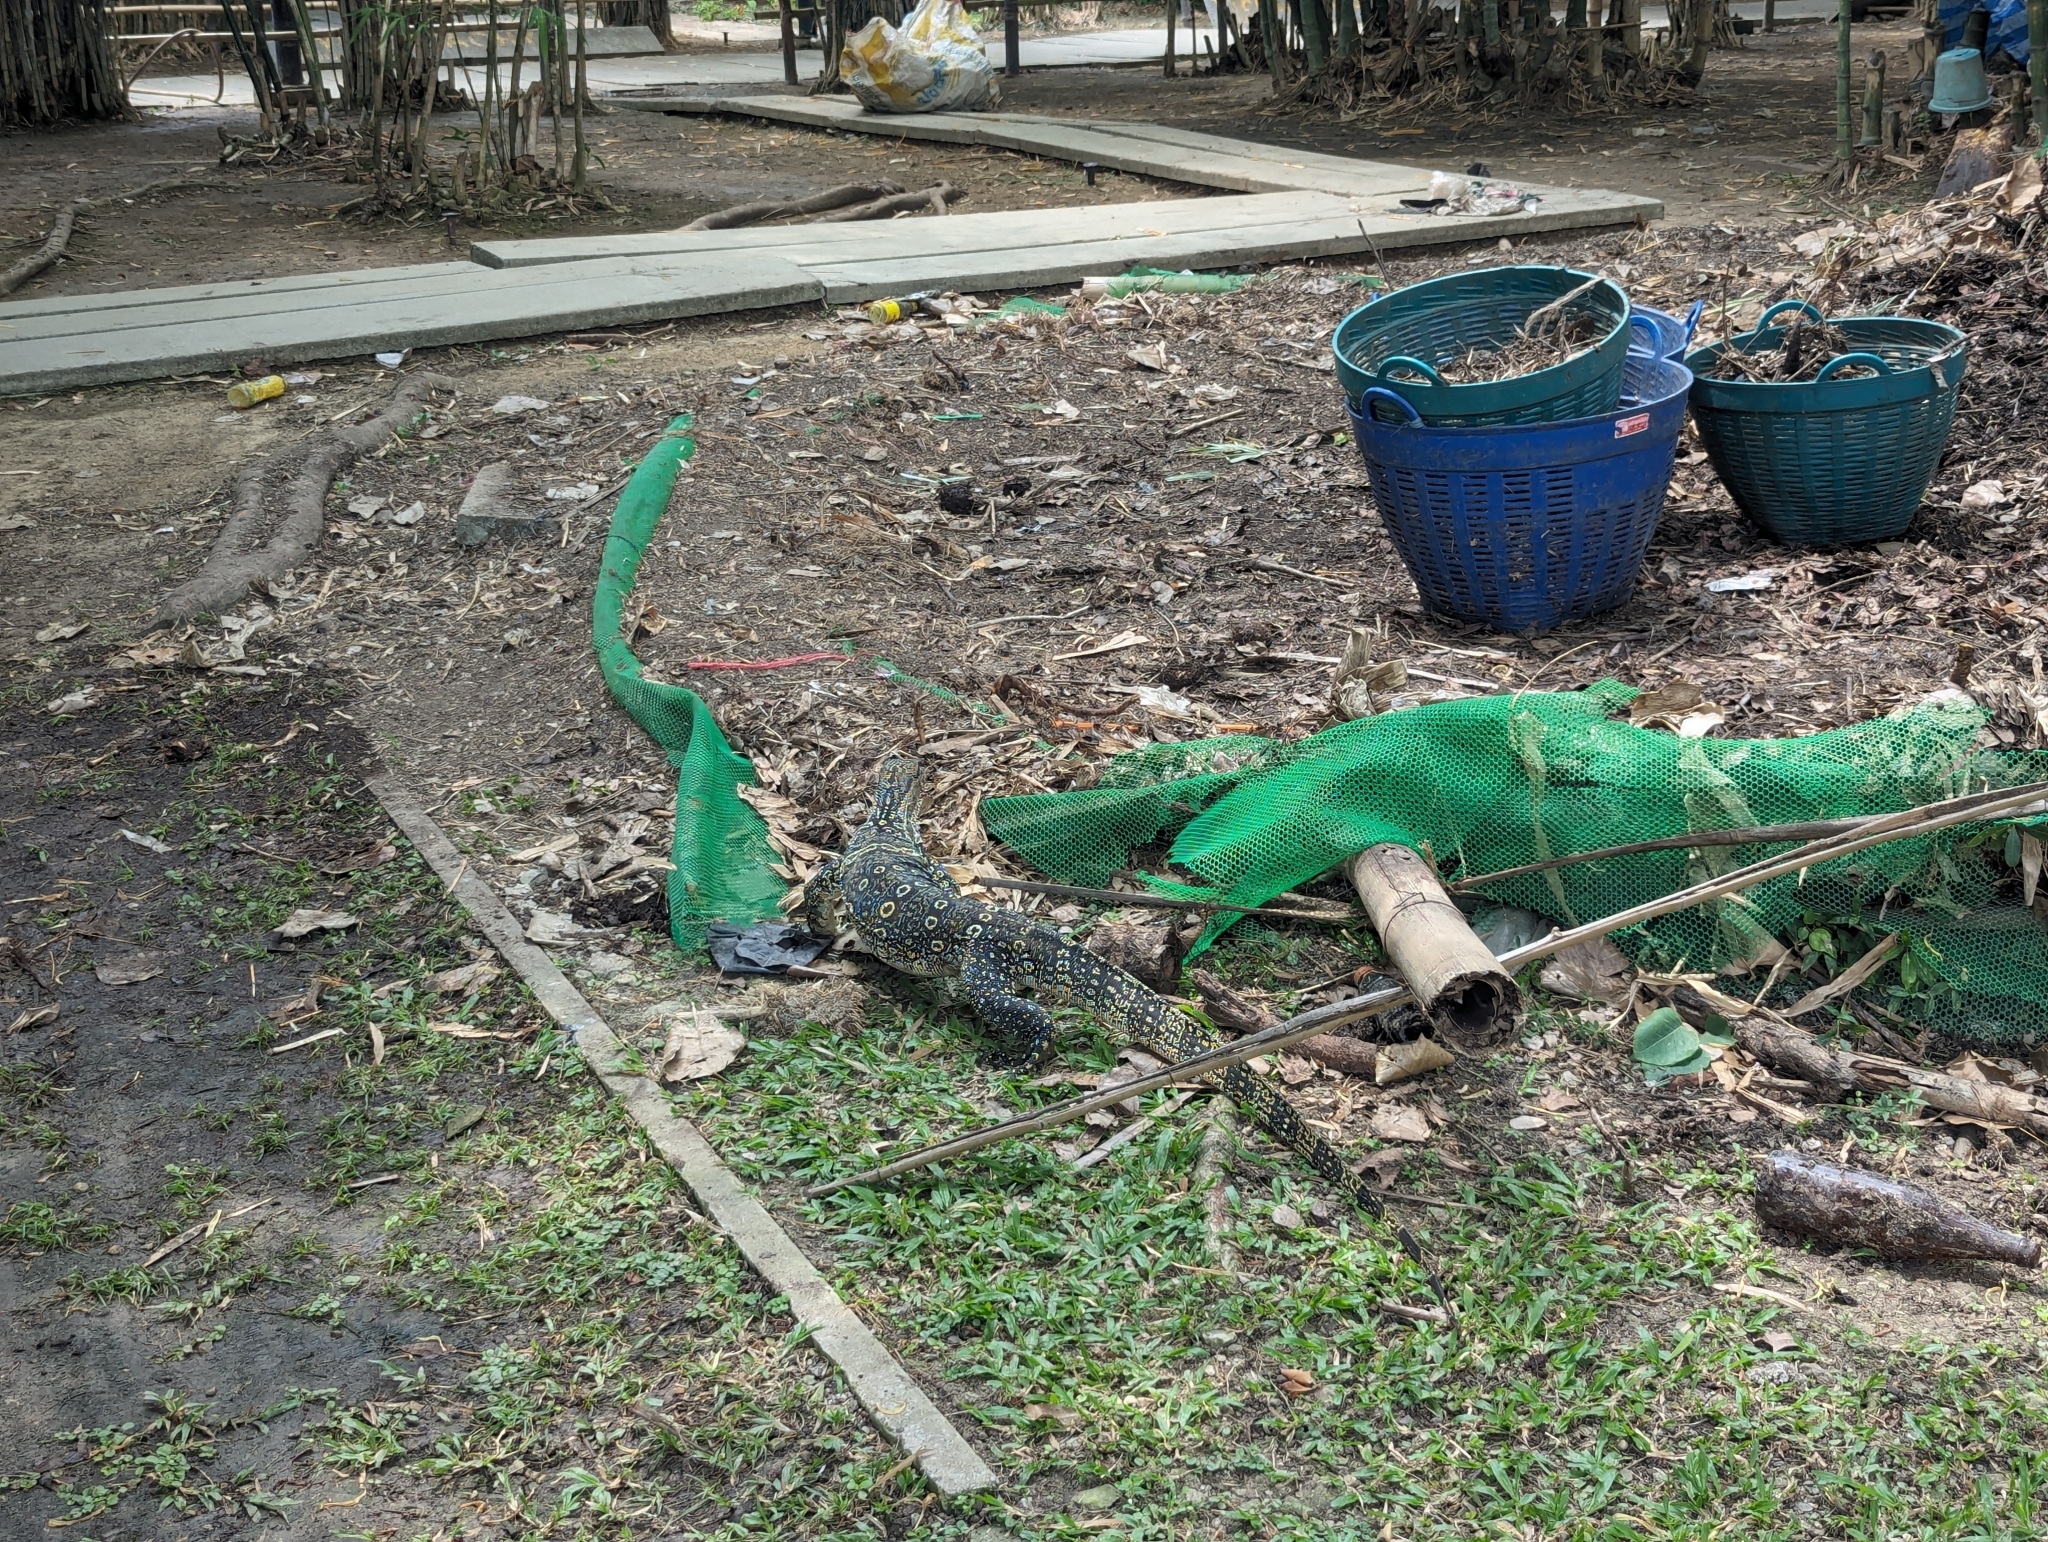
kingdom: Animalia
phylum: Chordata
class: Squamata
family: Varanidae
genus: Varanus
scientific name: Varanus salvator
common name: Common water monitor
